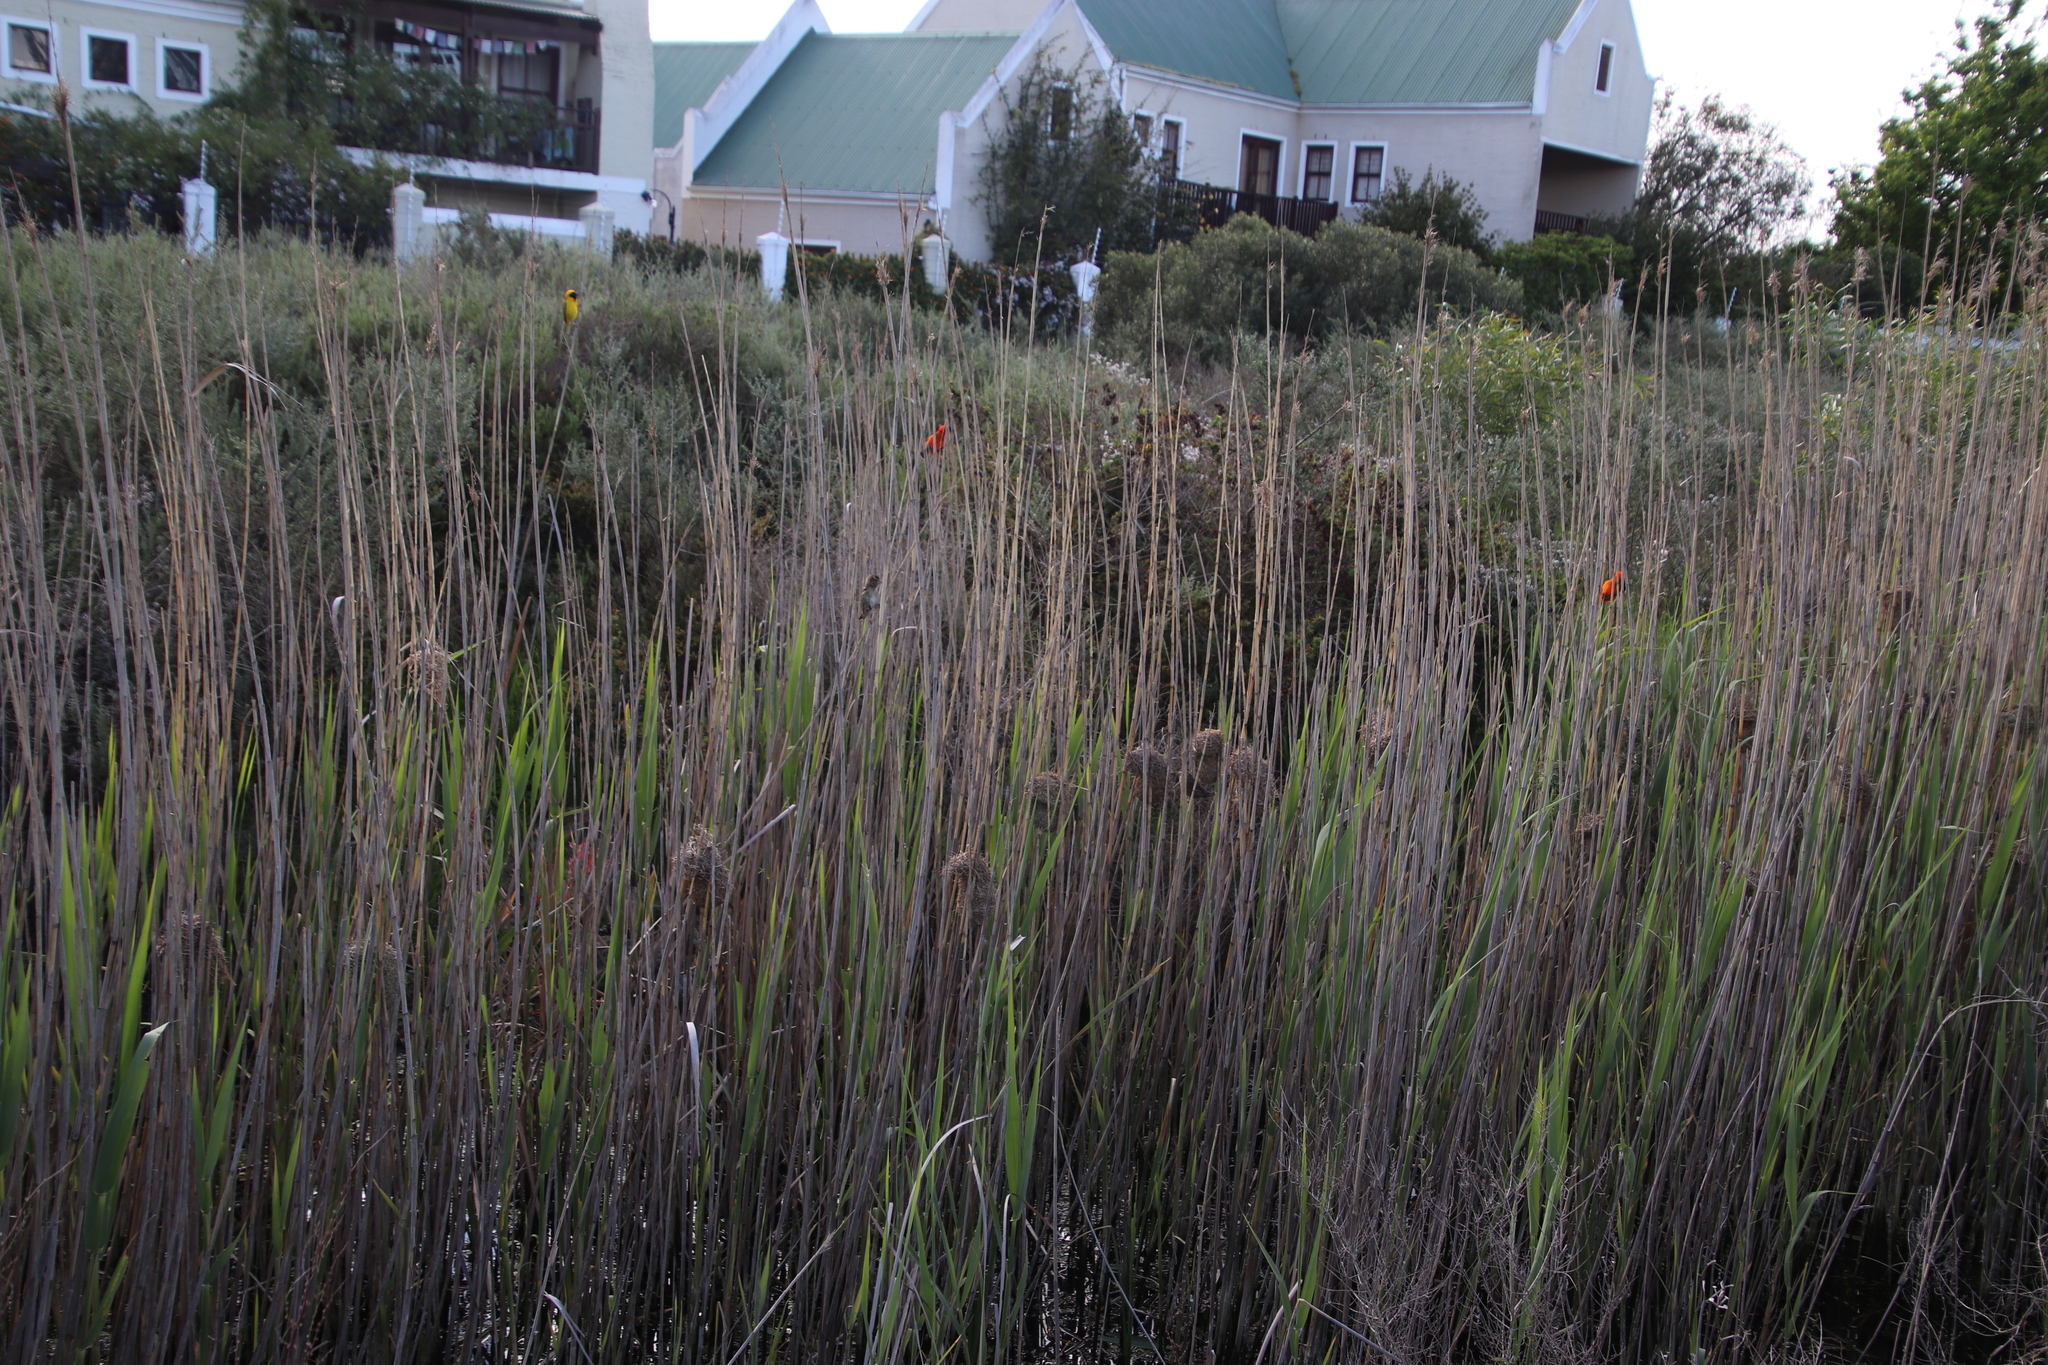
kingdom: Plantae
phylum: Tracheophyta
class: Liliopsida
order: Poales
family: Poaceae
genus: Phragmites
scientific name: Phragmites australis
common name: Common reed
